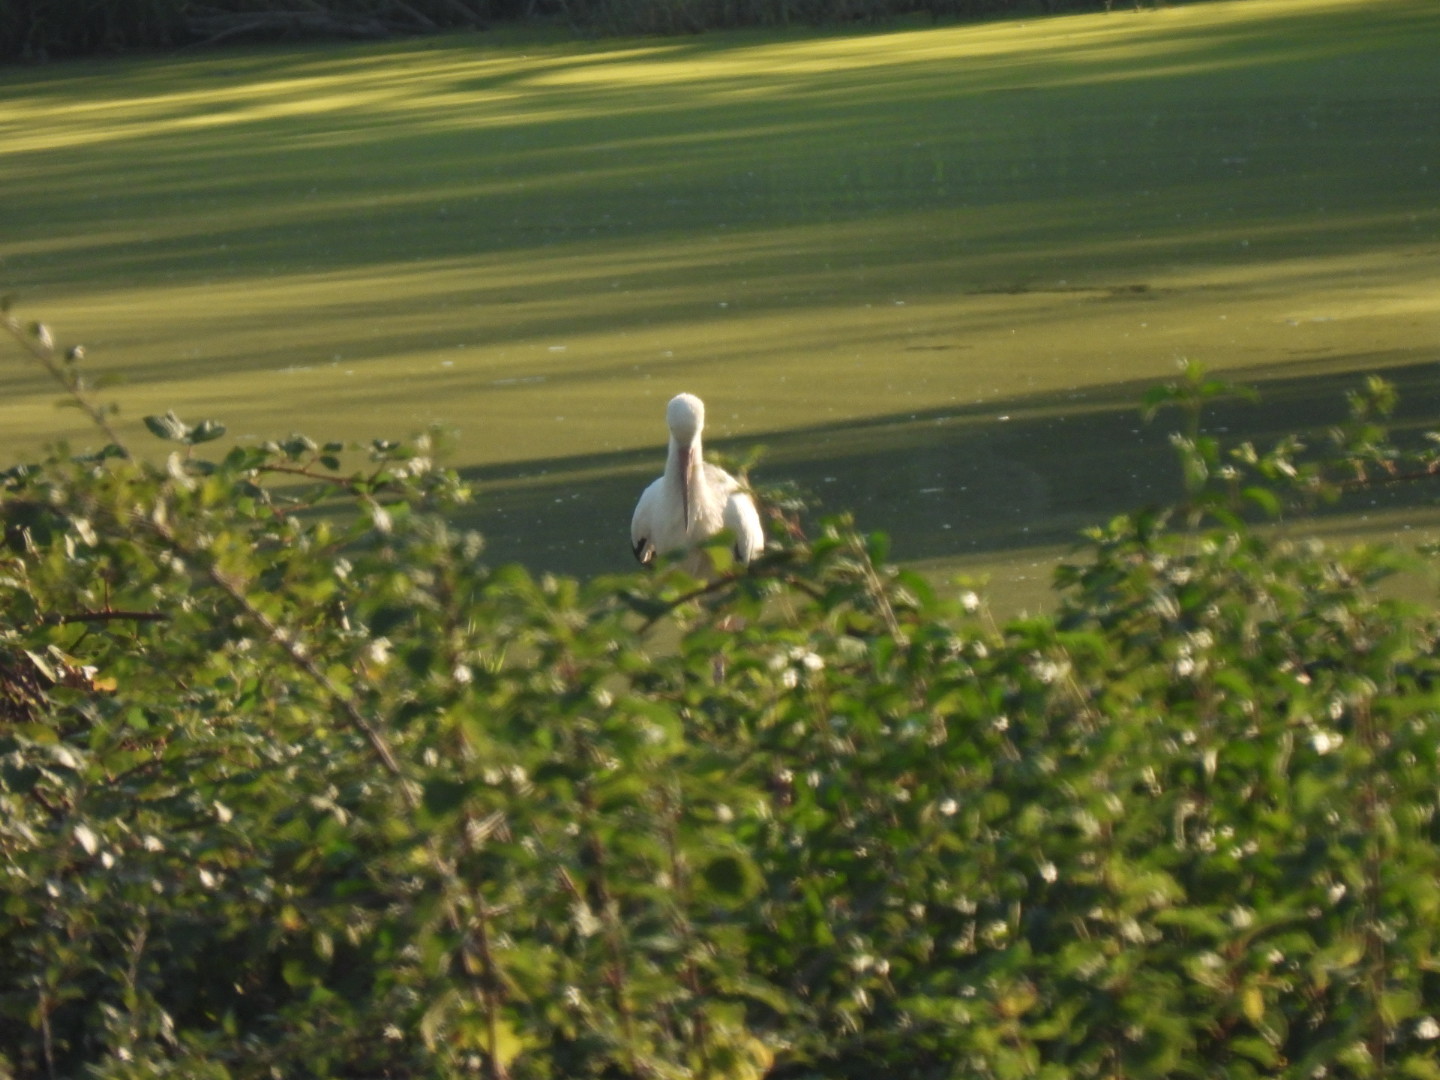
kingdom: Animalia
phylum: Chordata
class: Aves
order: Ciconiiformes
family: Ciconiidae
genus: Ciconia
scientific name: Ciconia ciconia
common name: White stork
